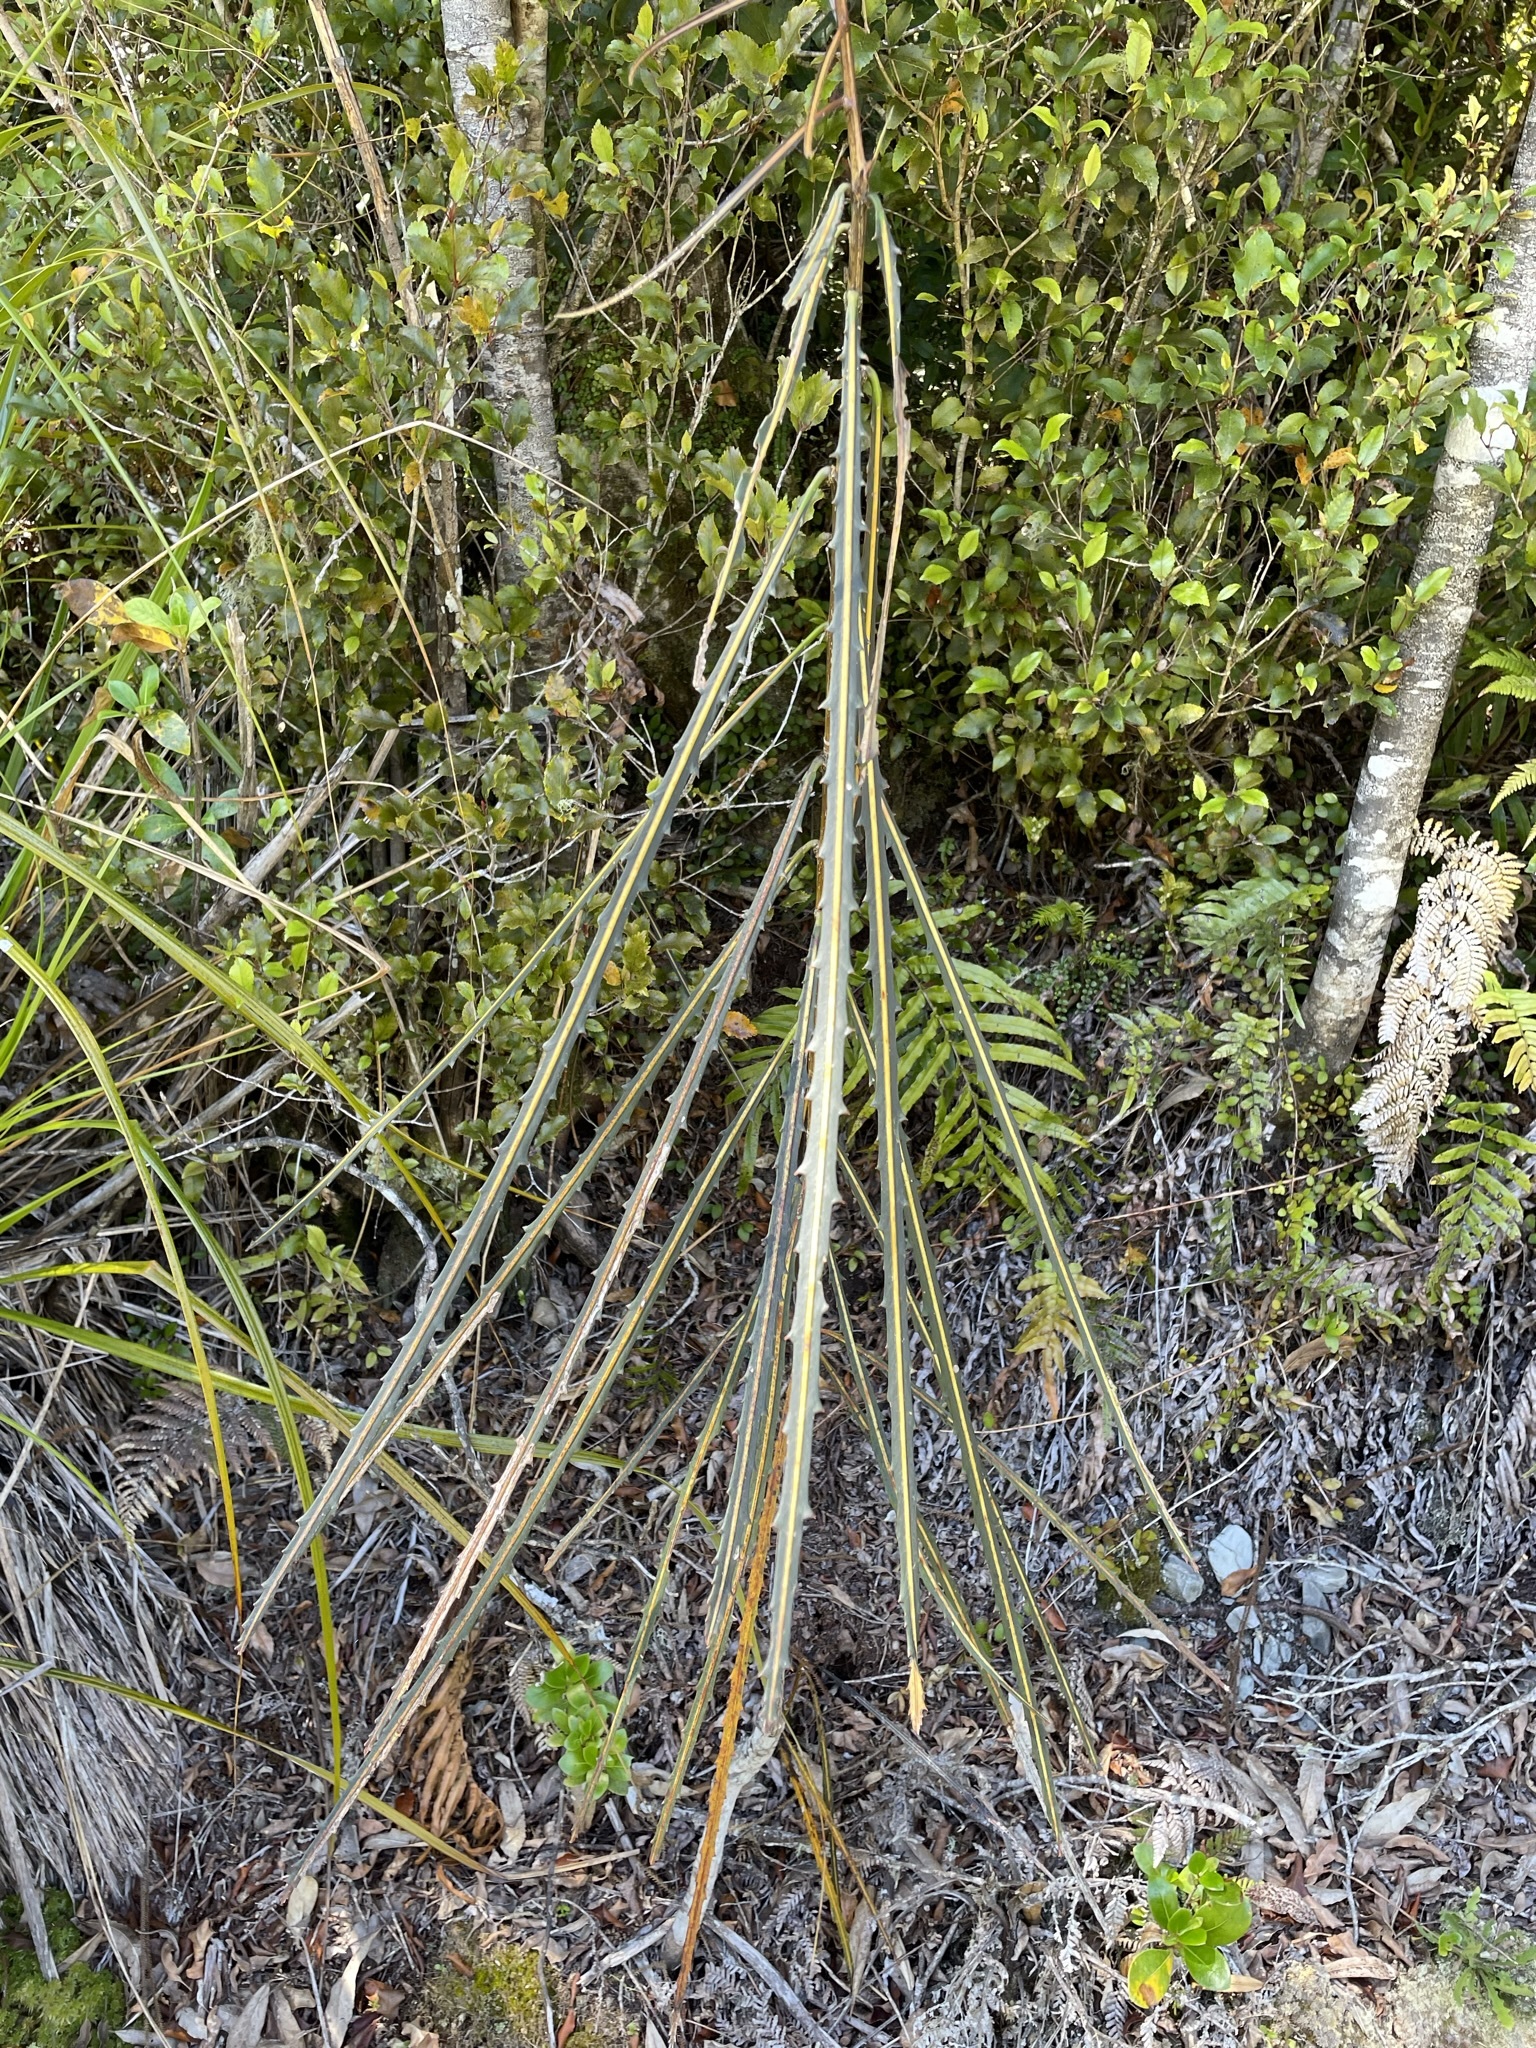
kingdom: Plantae
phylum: Tracheophyta
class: Magnoliopsida
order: Apiales
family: Araliaceae
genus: Pseudopanax
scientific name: Pseudopanax crassifolius
